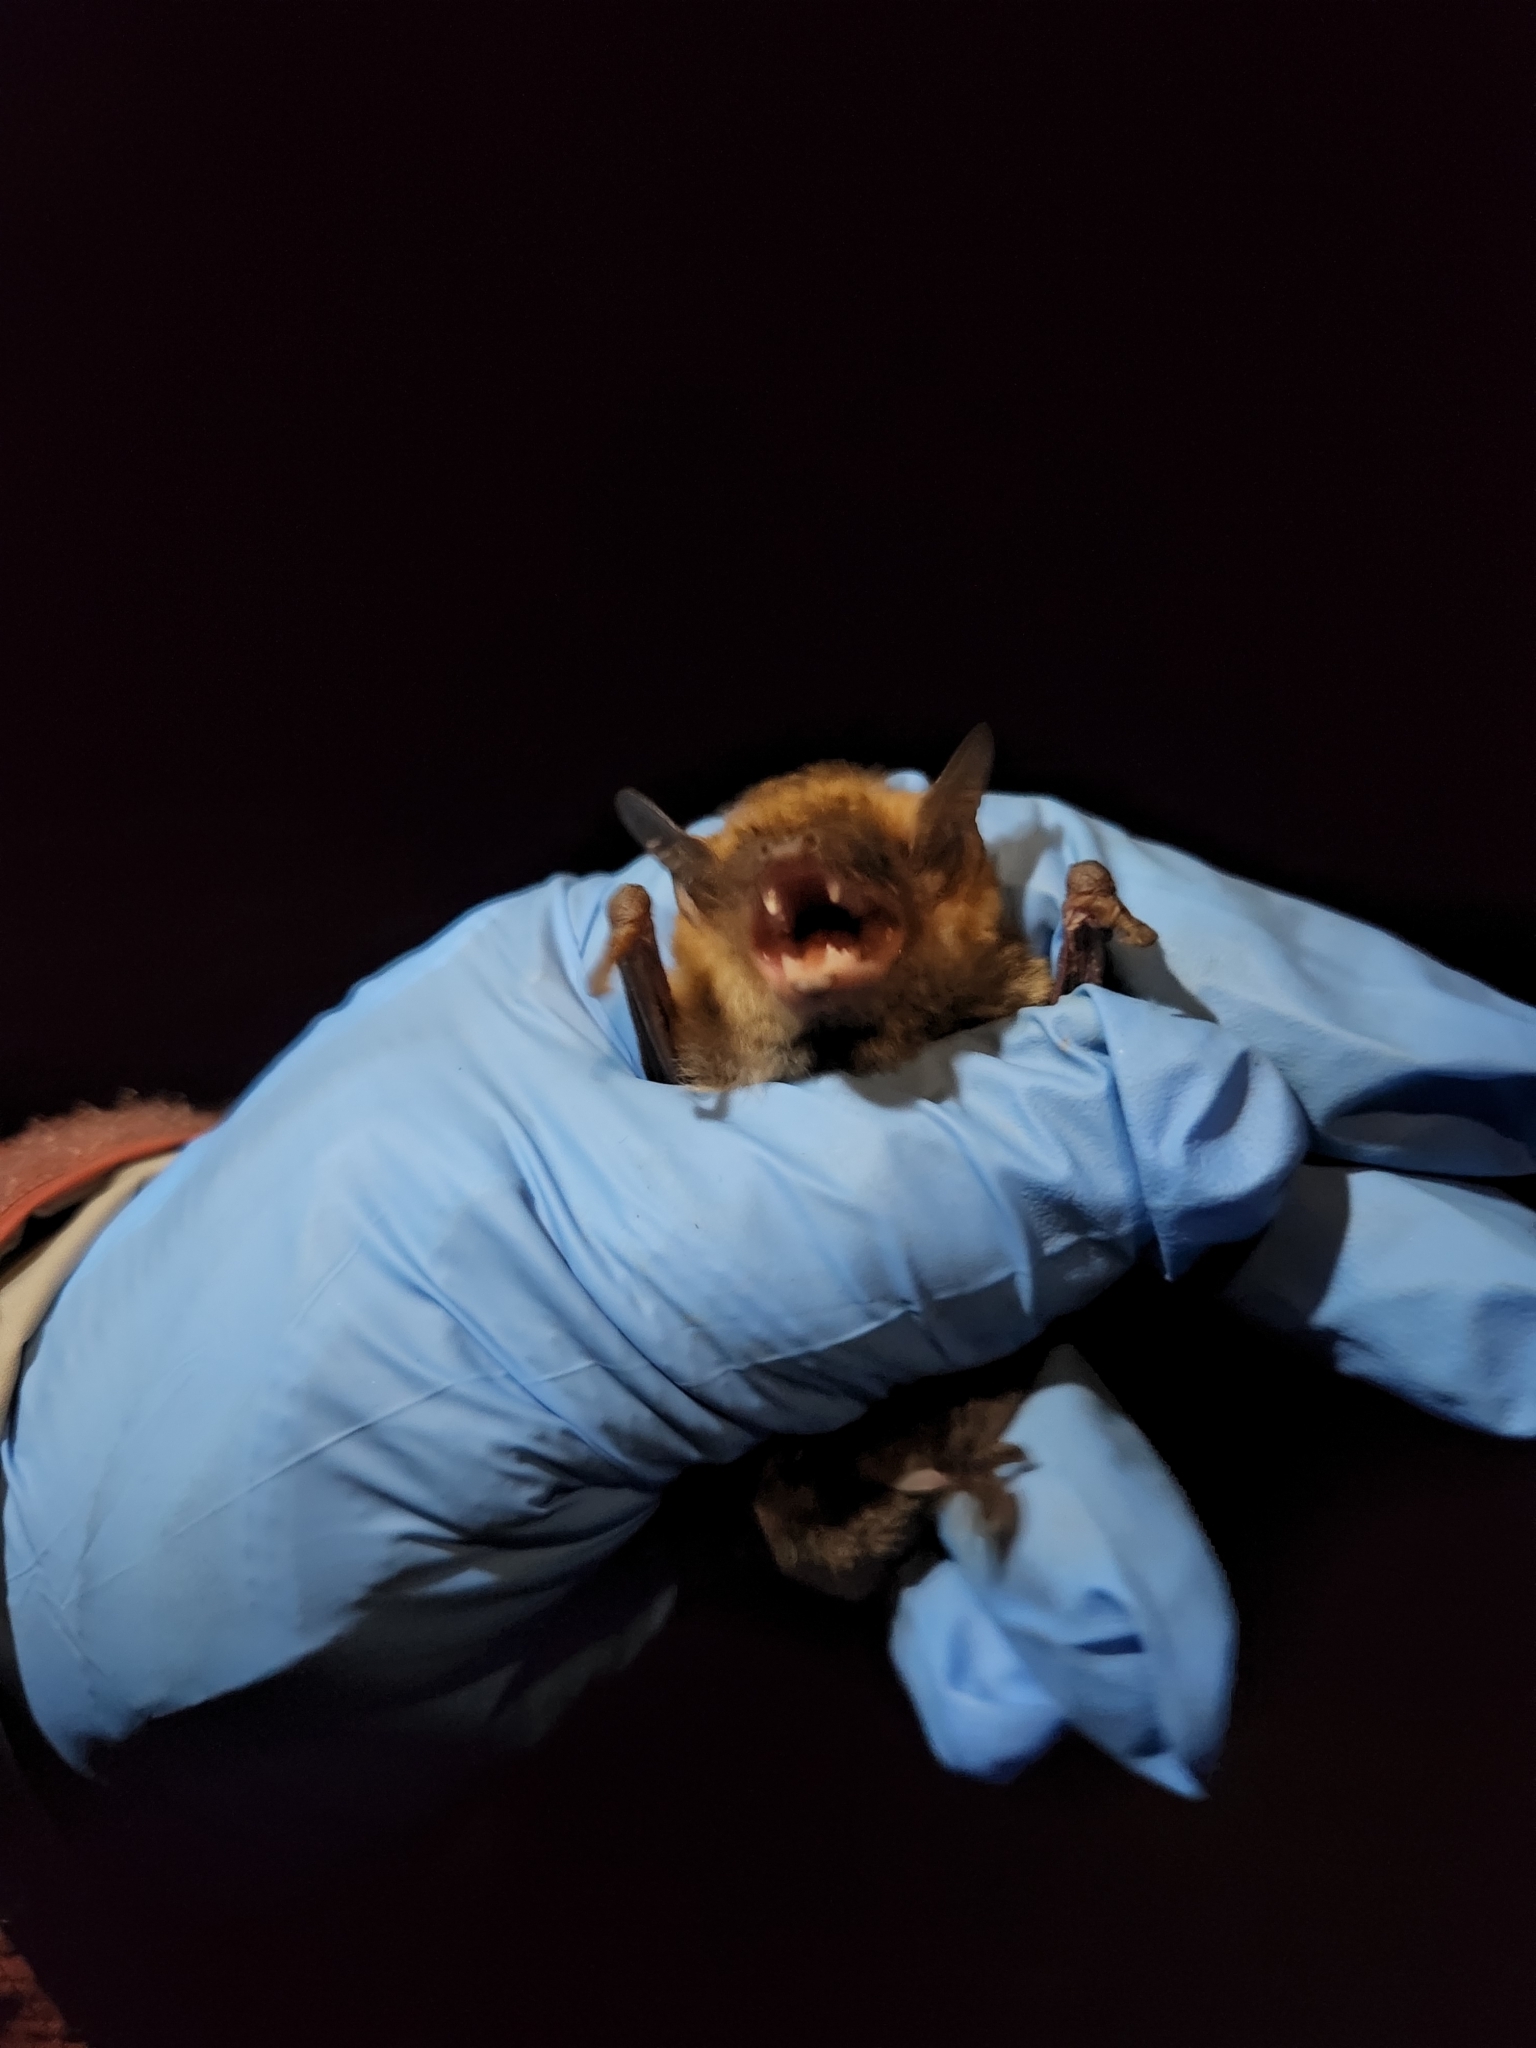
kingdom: Animalia
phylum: Chordata
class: Mammalia
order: Chiroptera
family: Vespertilionidae
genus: Eptesicus
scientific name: Eptesicus fuscus
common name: Big brown bat
